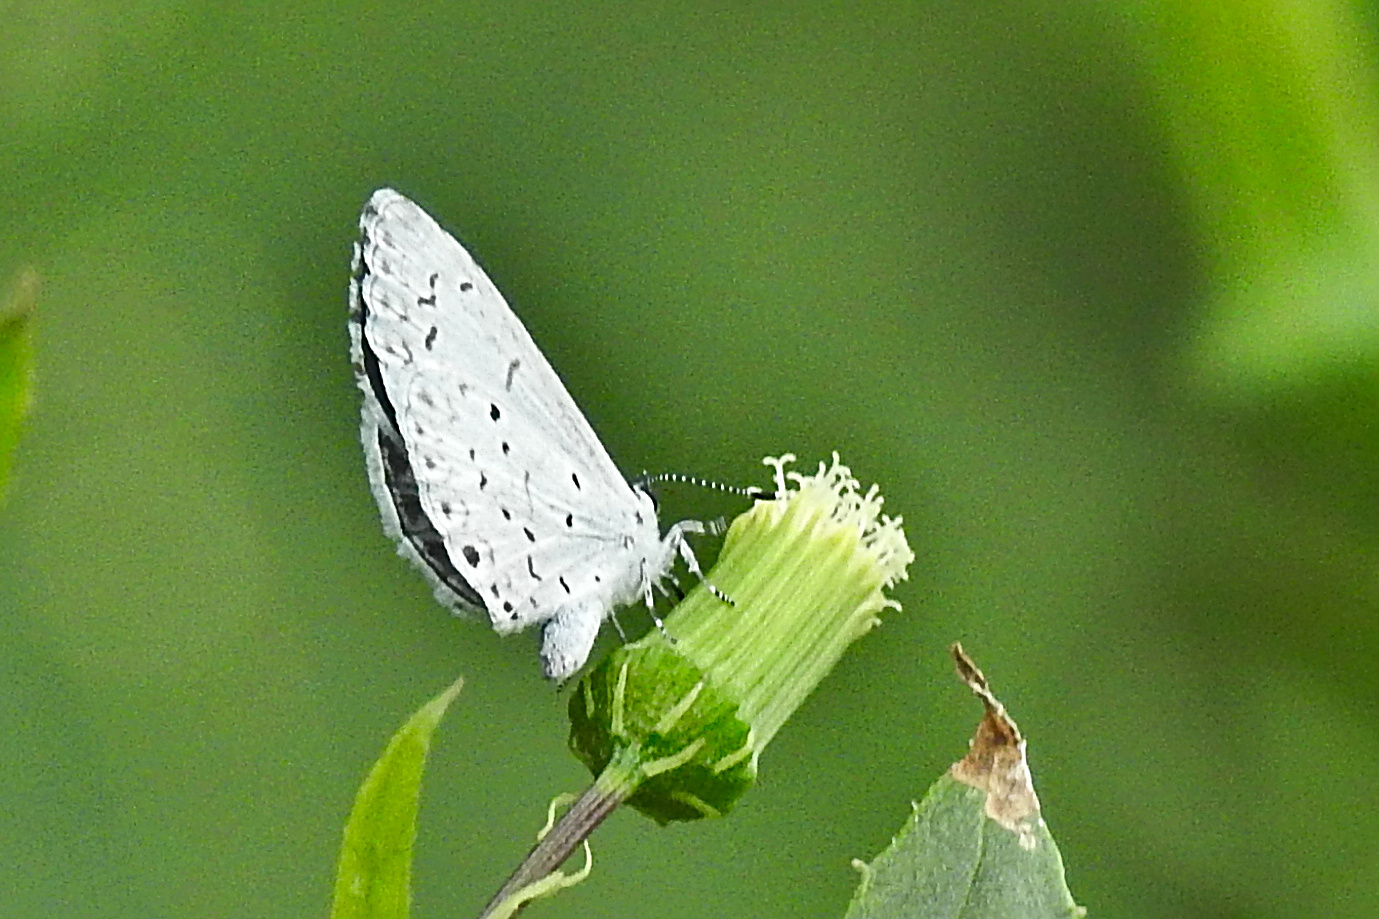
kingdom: Animalia
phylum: Arthropoda
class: Insecta
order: Lepidoptera
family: Lycaenidae
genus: Cyaniris
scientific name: Cyaniris neglecta
